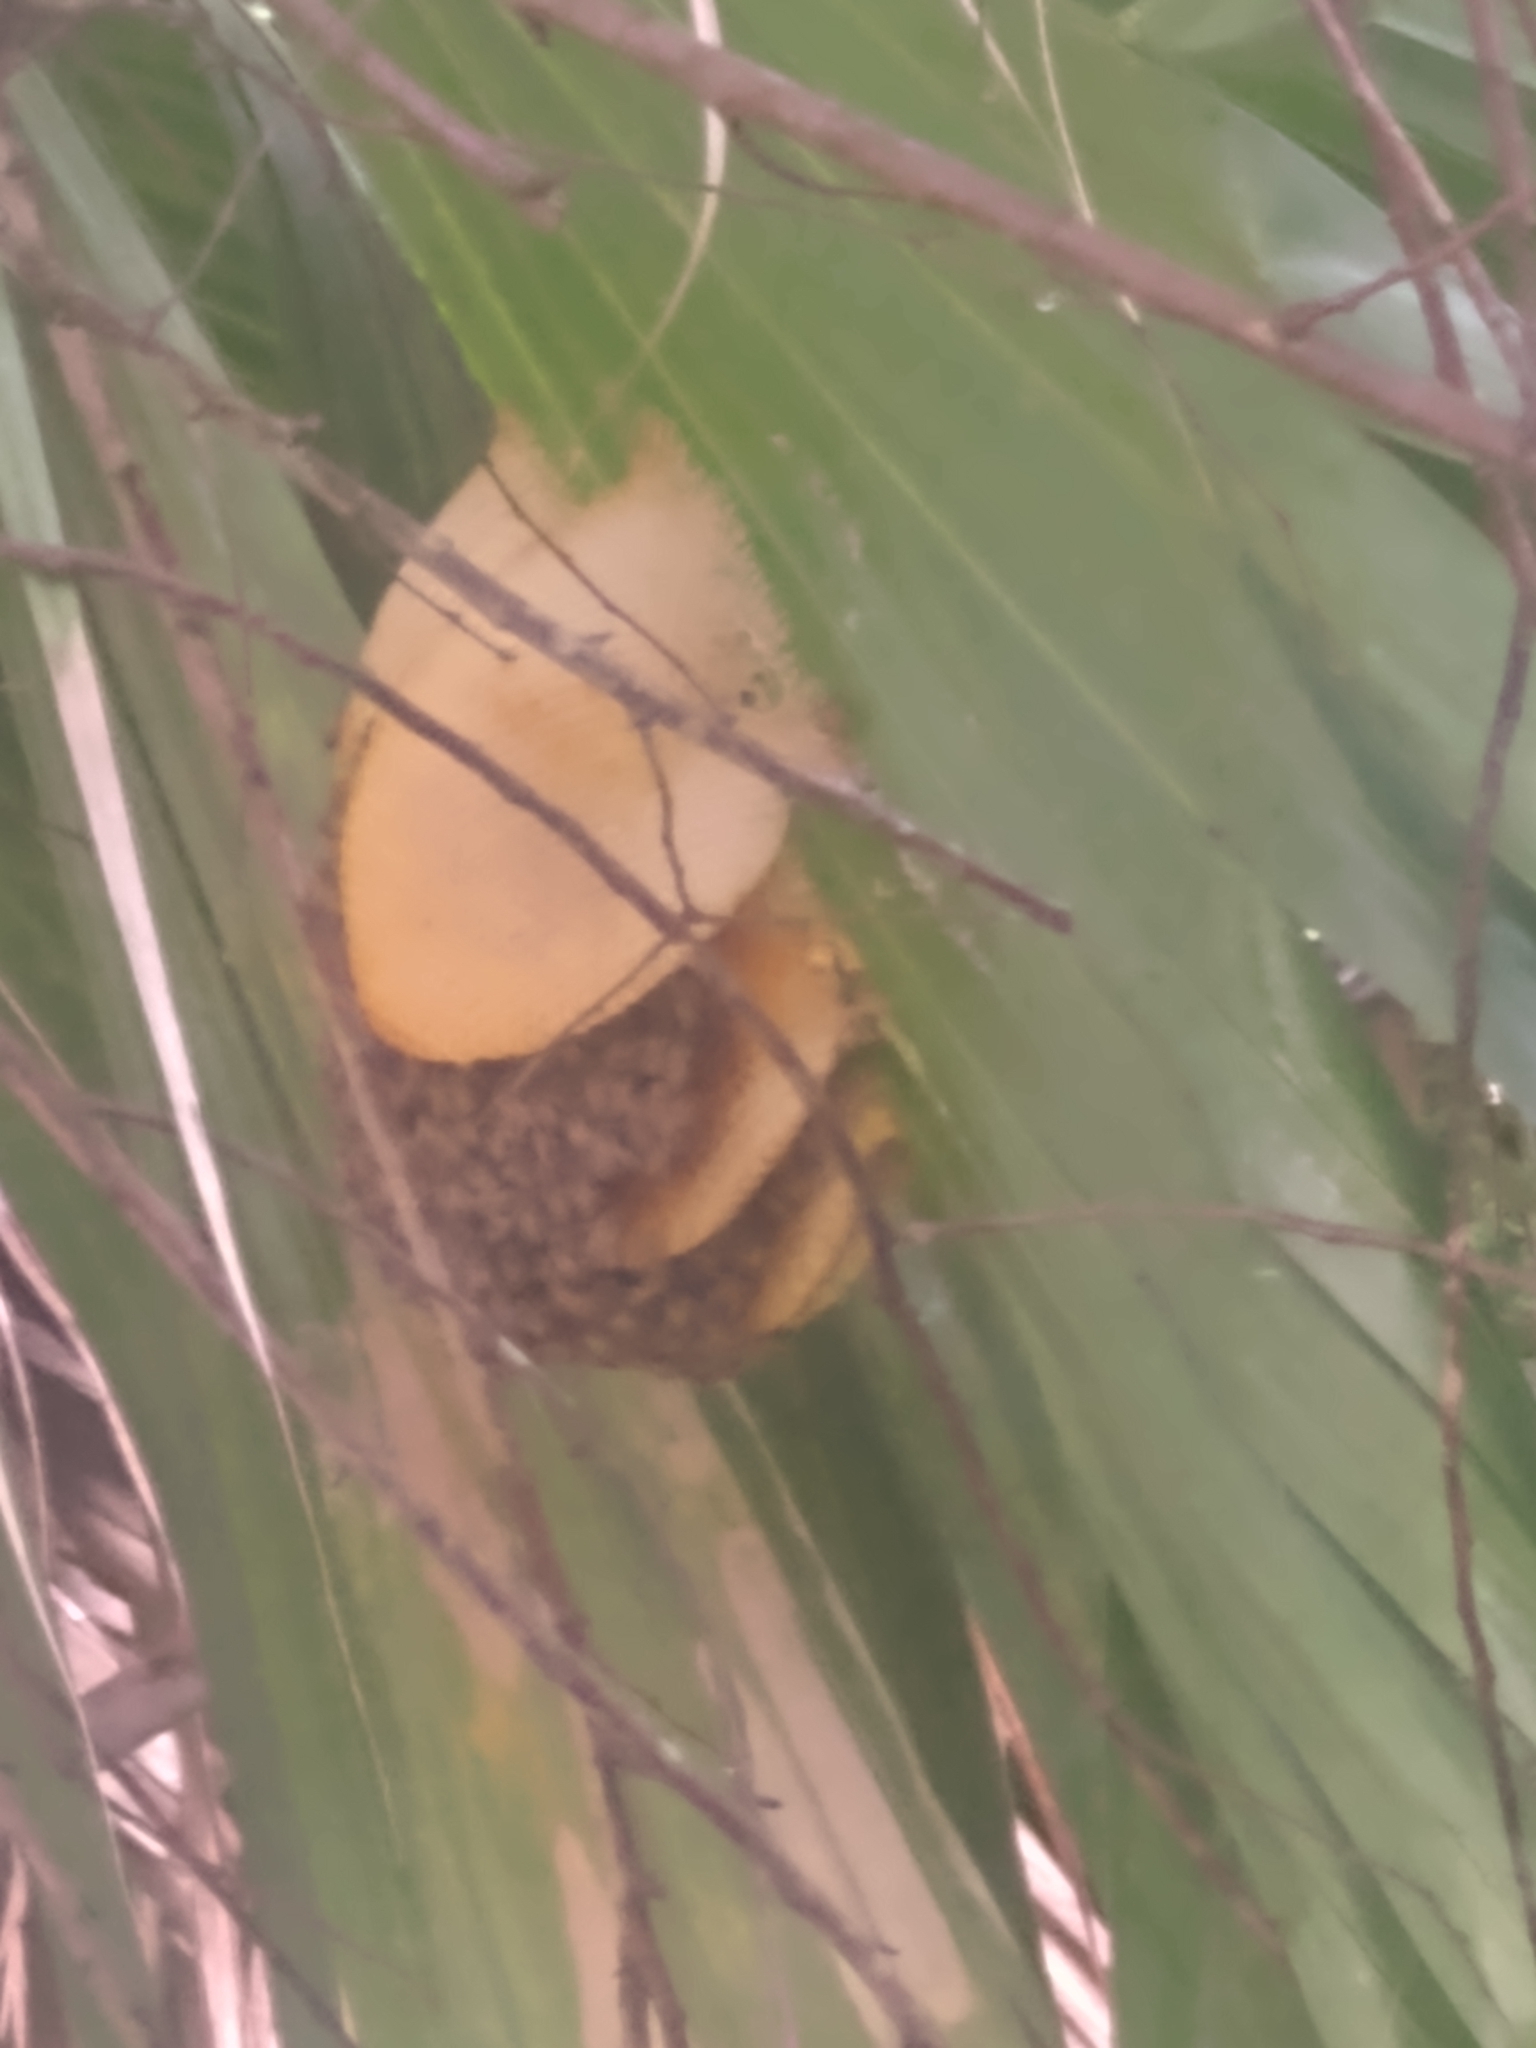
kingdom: Animalia
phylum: Arthropoda
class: Insecta
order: Hymenoptera
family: Apidae
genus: Apis
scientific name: Apis mellifera
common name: Honey bee
